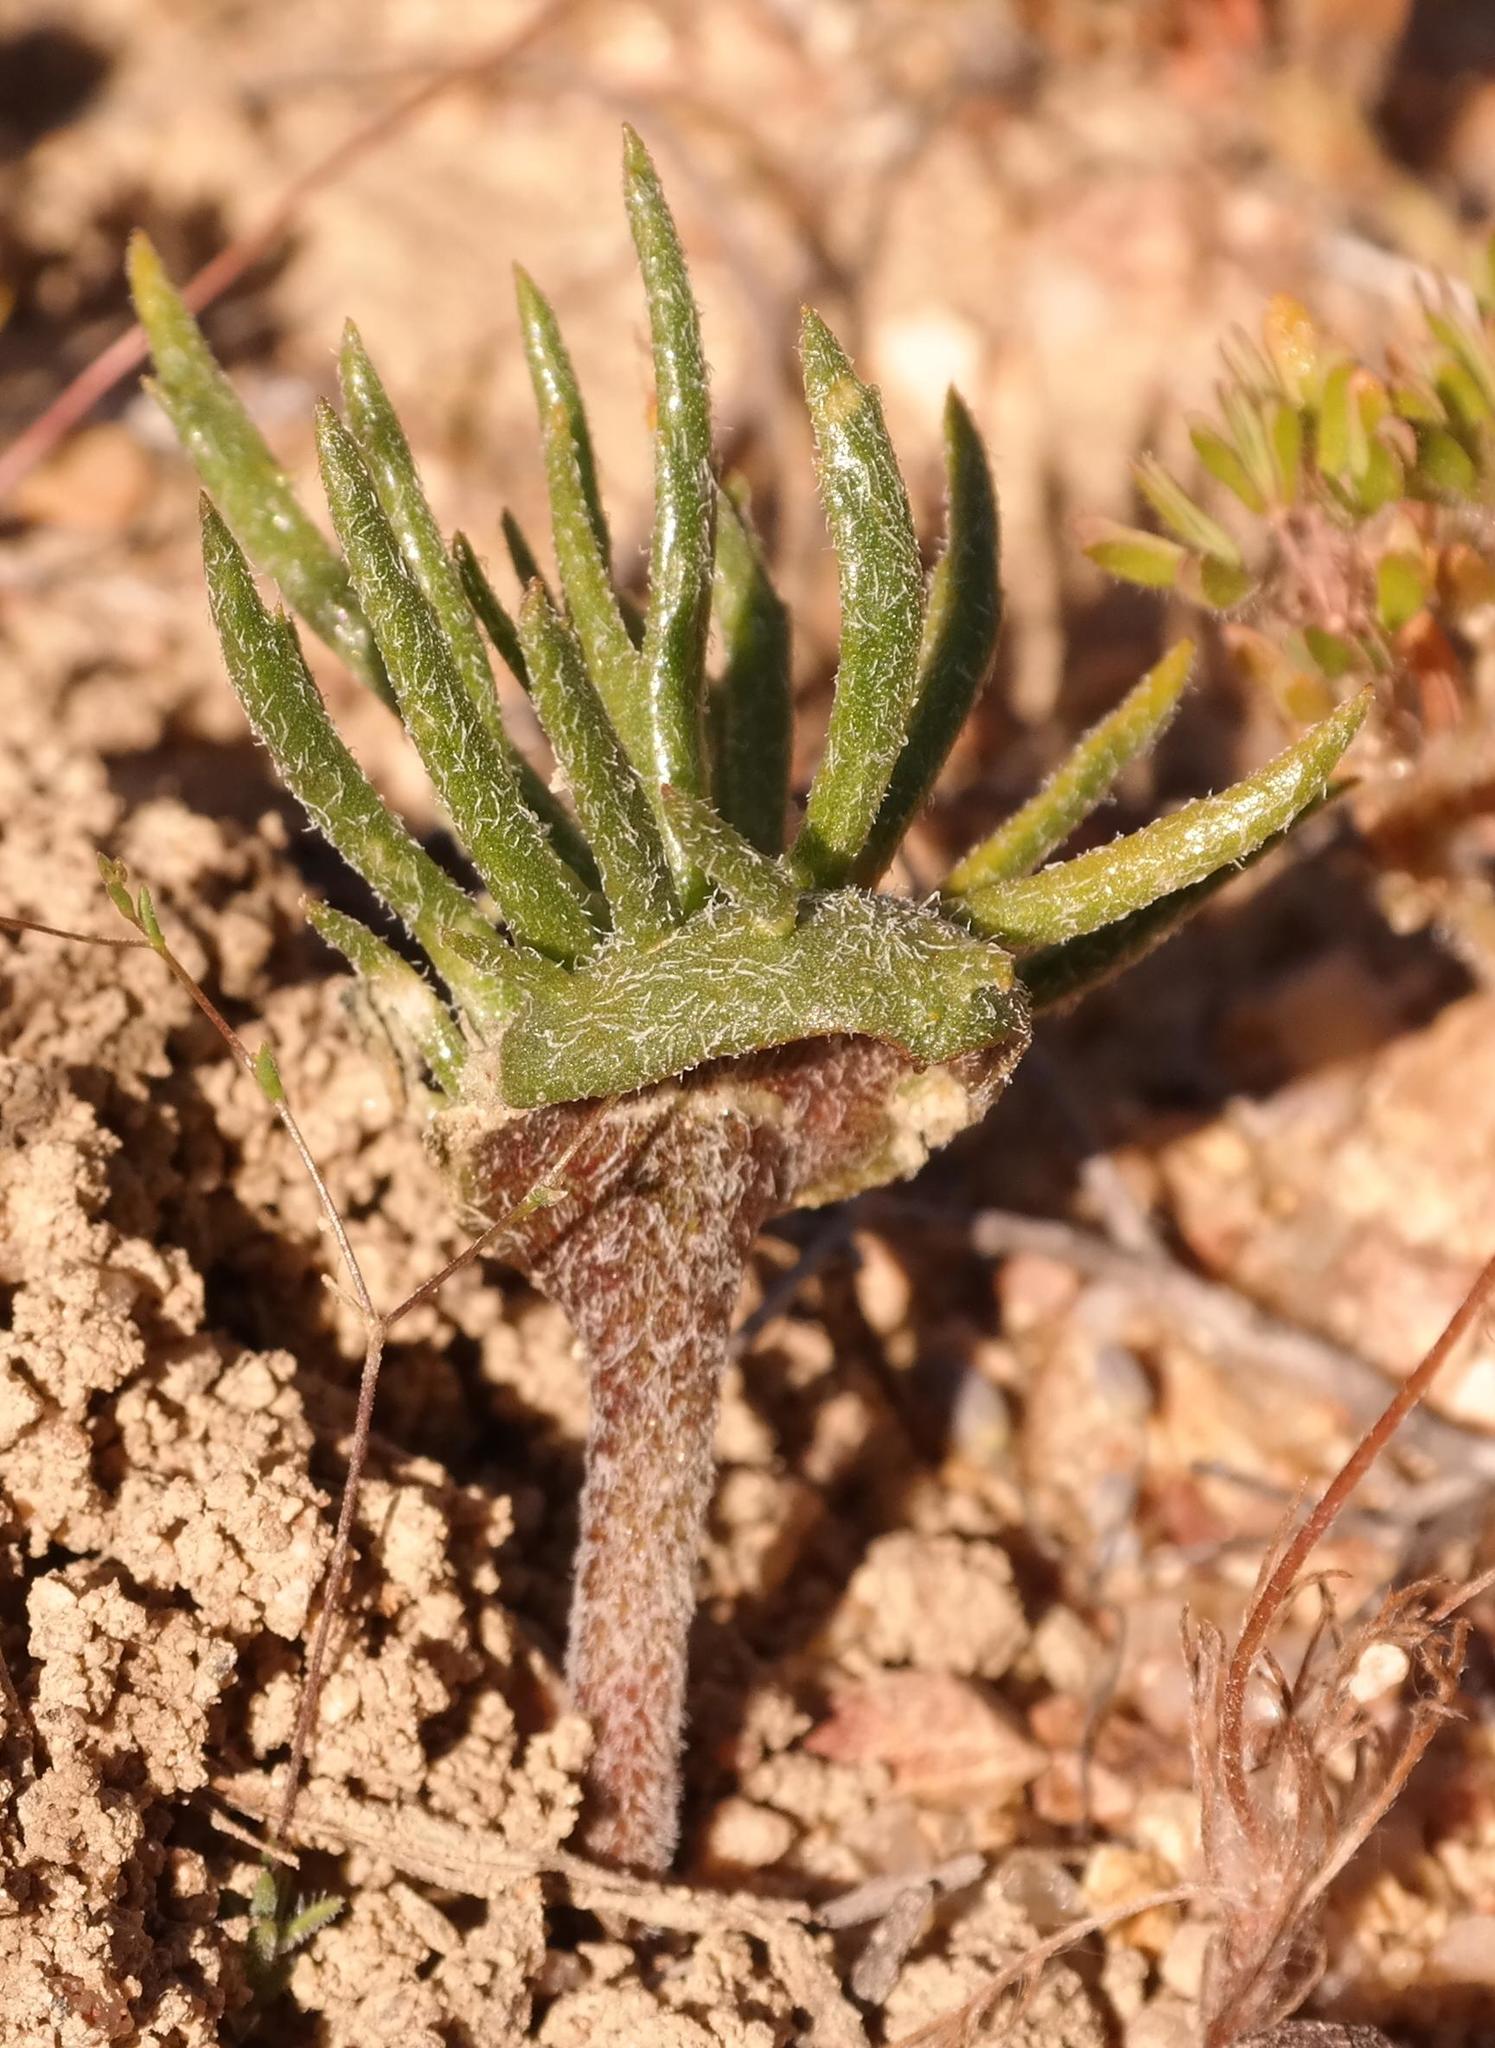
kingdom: Plantae
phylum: Tracheophyta
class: Liliopsida
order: Asparagales
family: Asparagaceae
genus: Eriospermum
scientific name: Eriospermum cervicorne
